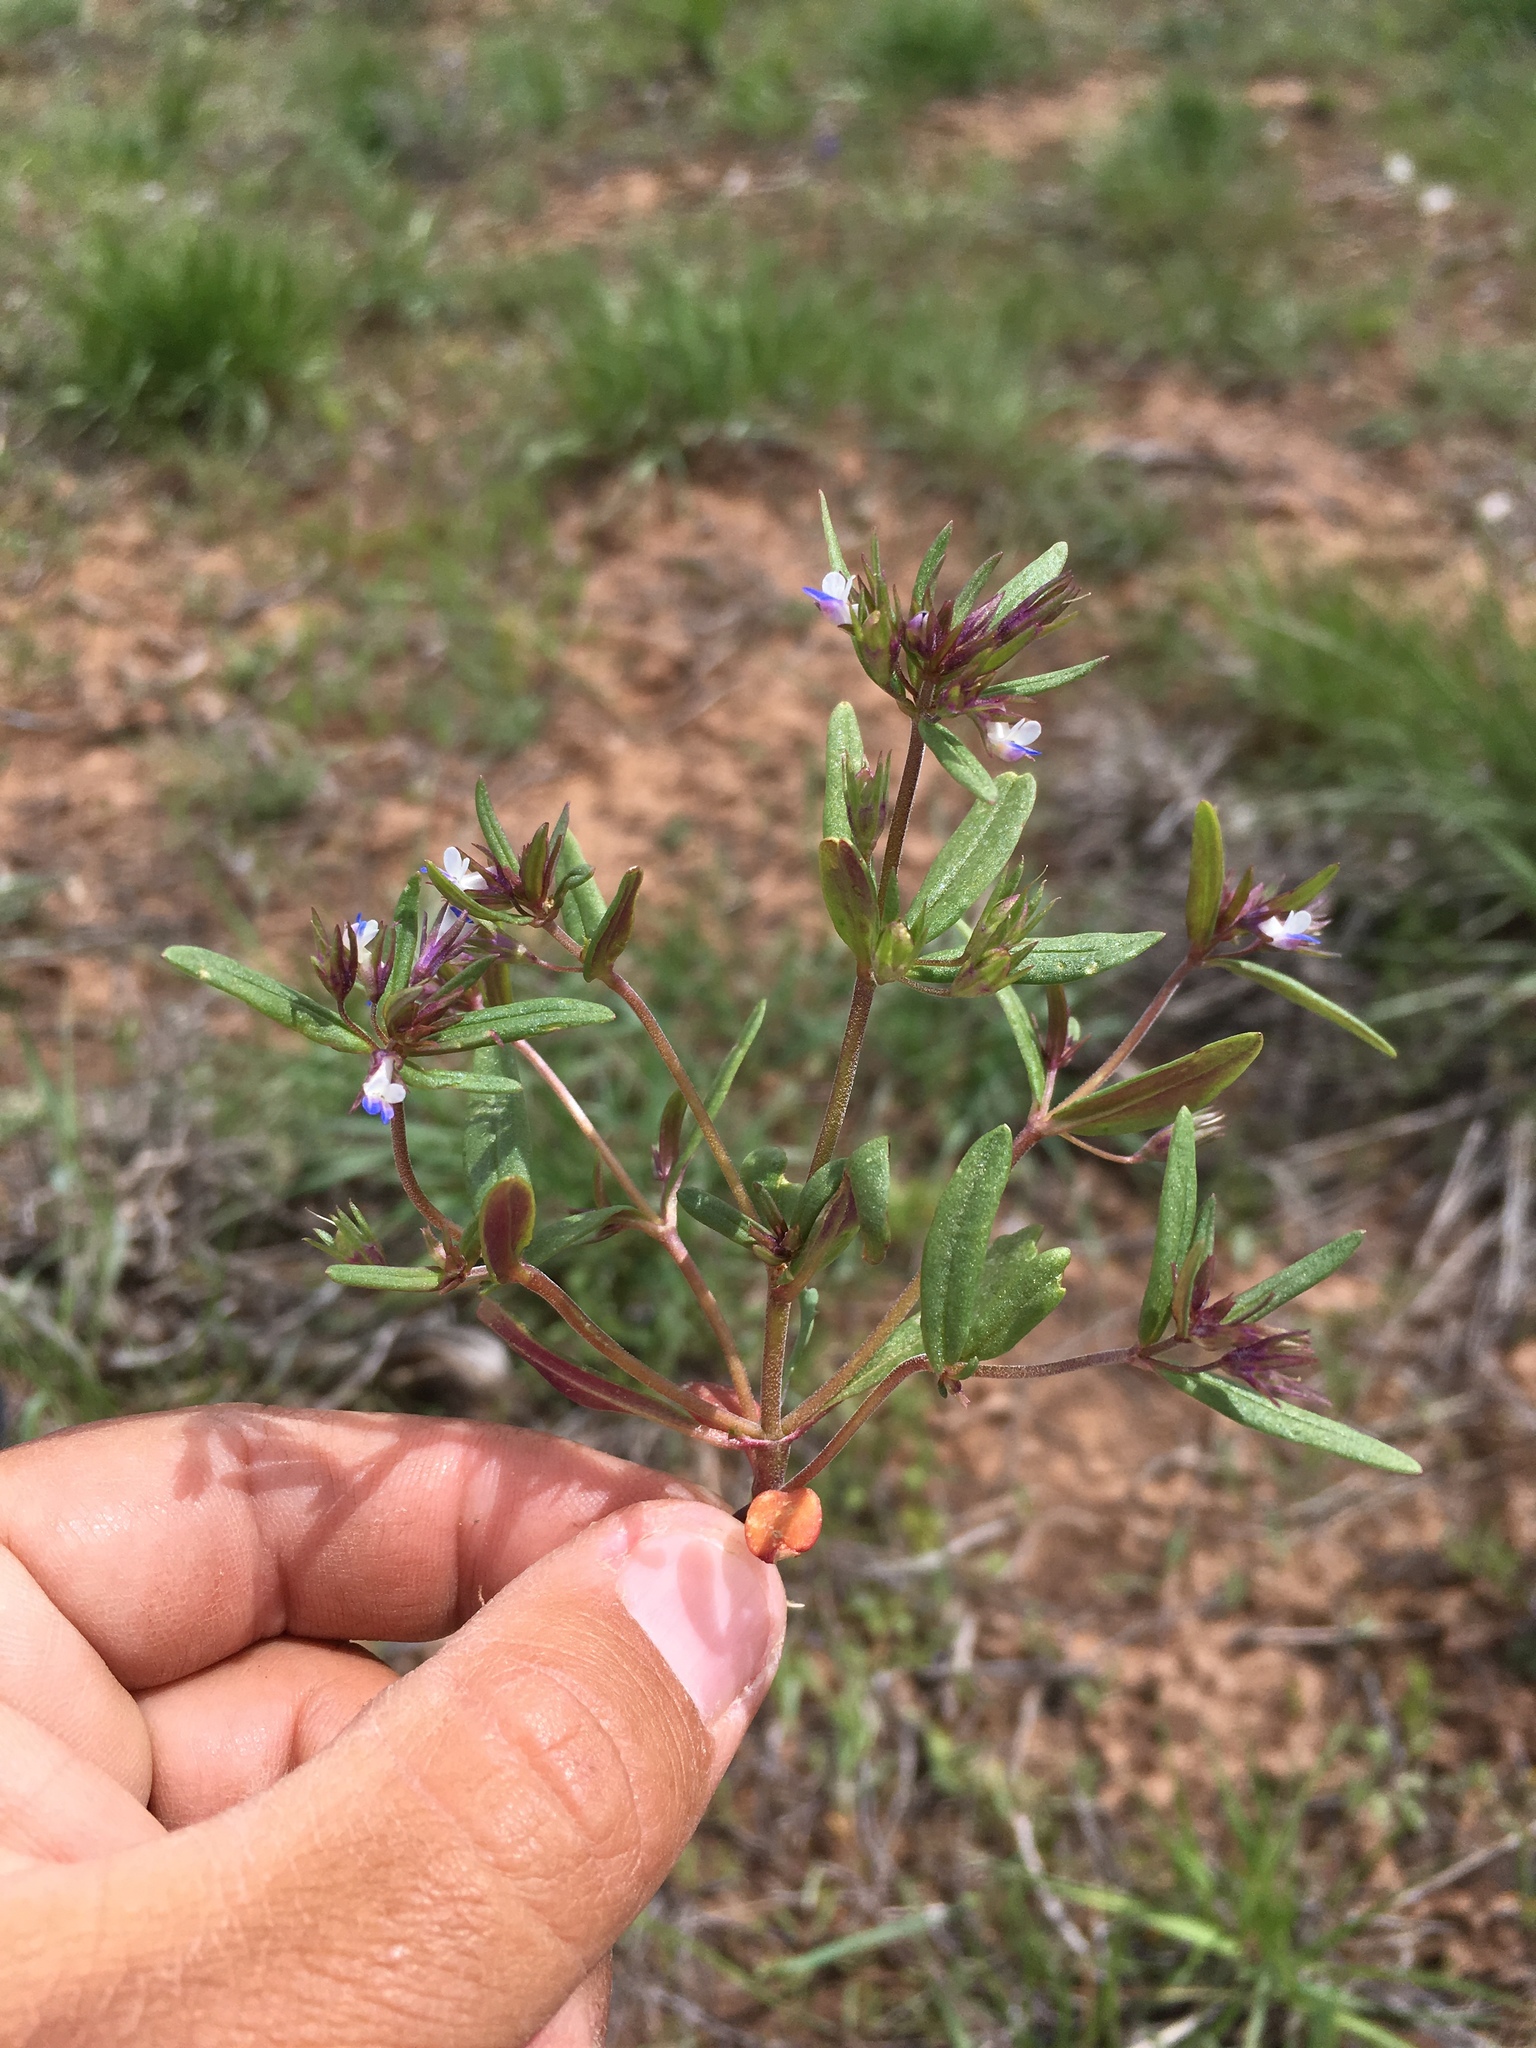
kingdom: Plantae
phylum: Tracheophyta
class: Magnoliopsida
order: Lamiales
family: Plantaginaceae
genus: Collinsia
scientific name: Collinsia parviflora
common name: Blue-lips
